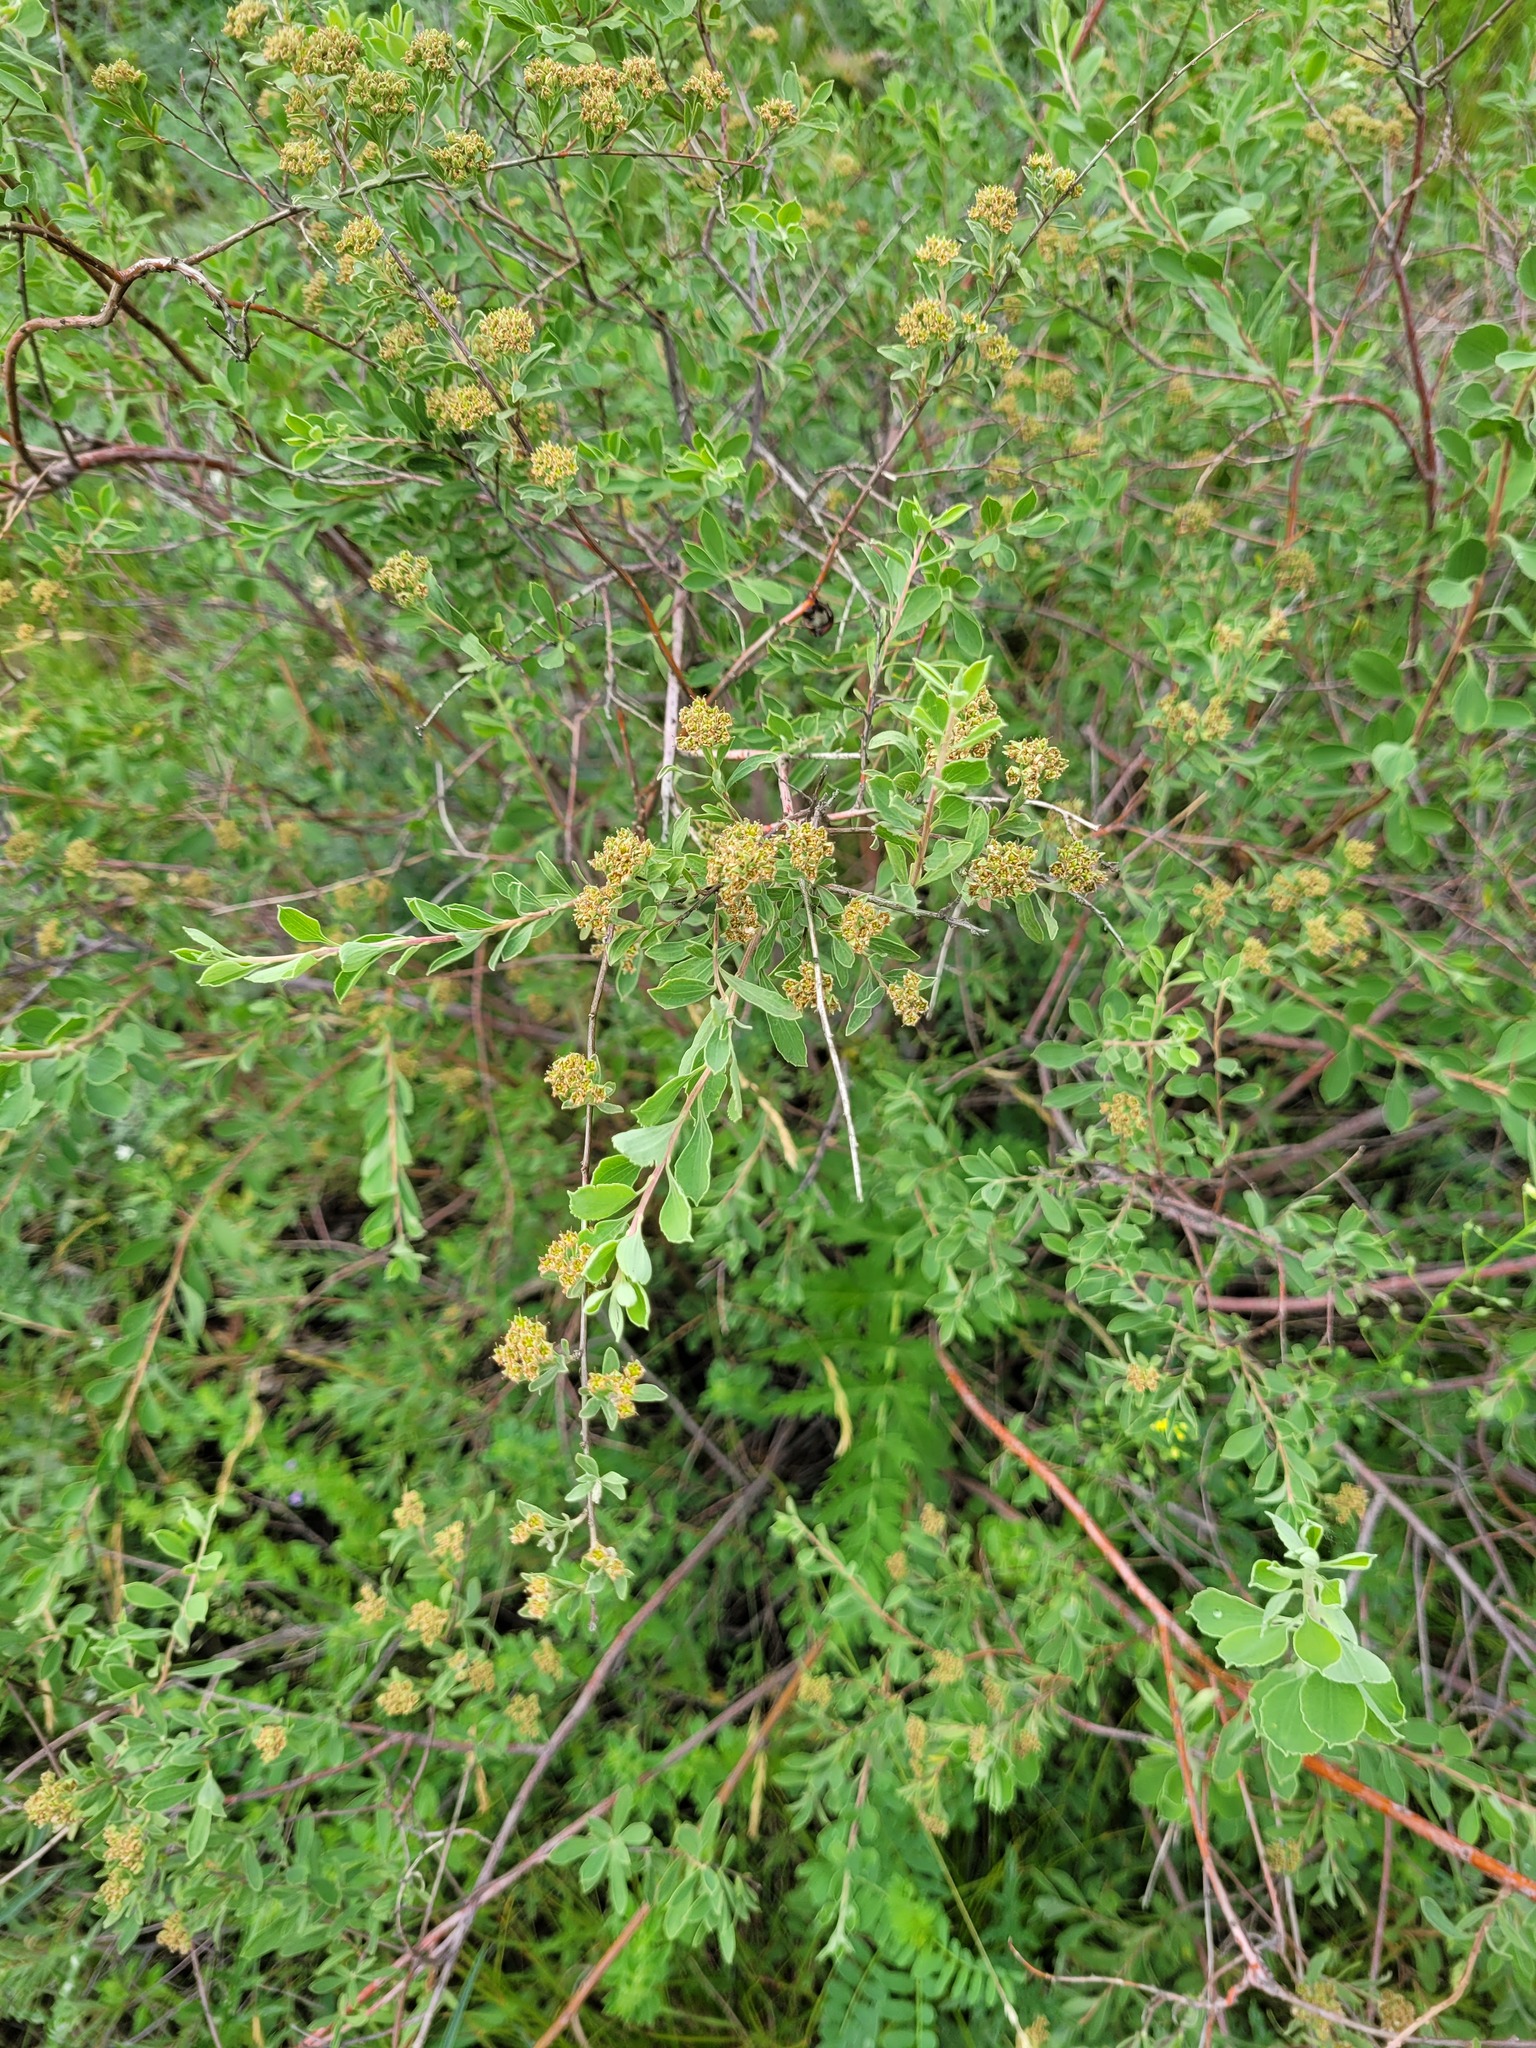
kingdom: Plantae
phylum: Tracheophyta
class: Magnoliopsida
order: Rosales
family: Rosaceae
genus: Spiraea
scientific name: Spiraea crenata
